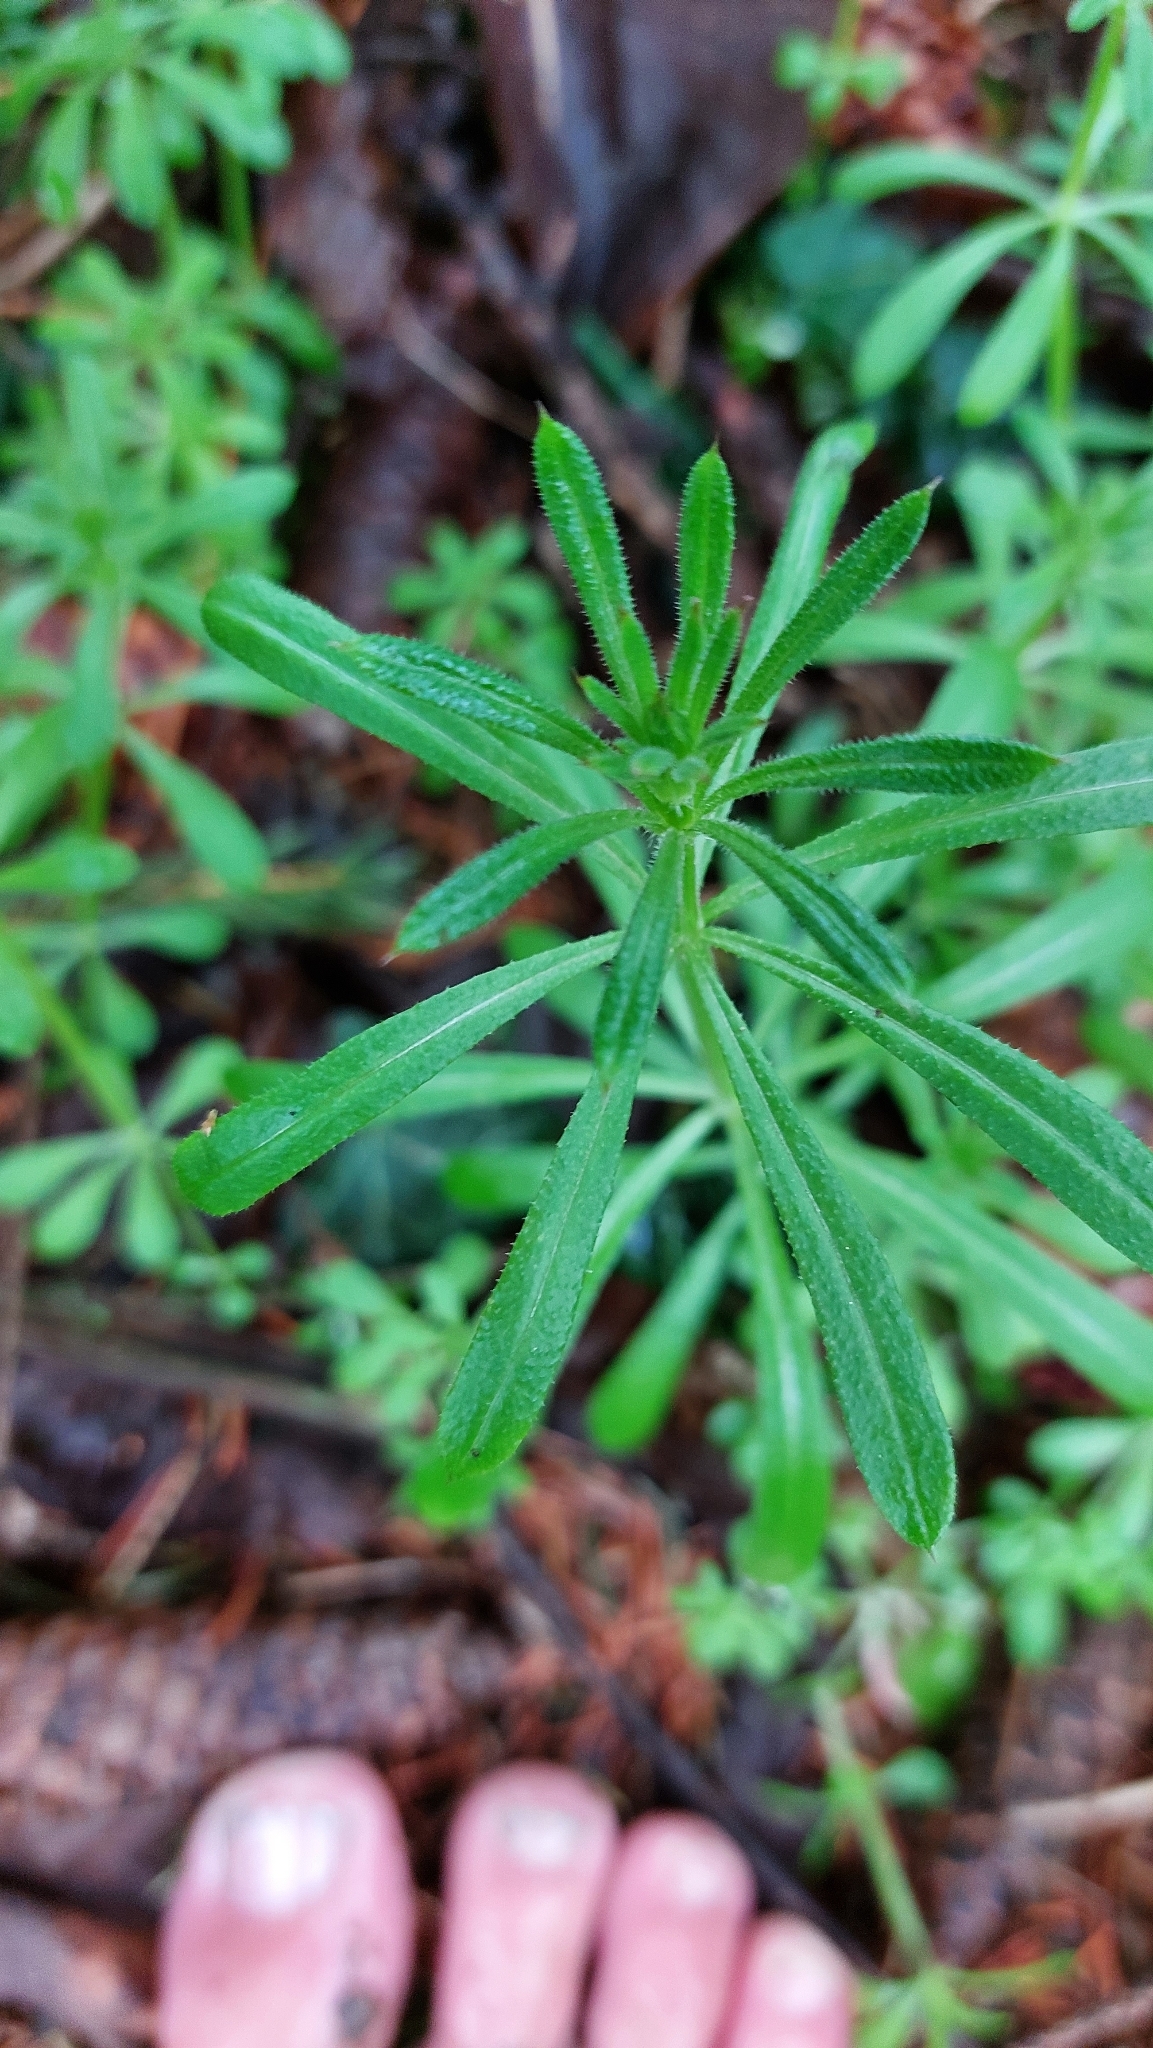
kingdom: Plantae
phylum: Tracheophyta
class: Magnoliopsida
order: Gentianales
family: Rubiaceae
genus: Galium
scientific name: Galium aparine
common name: Cleavers
